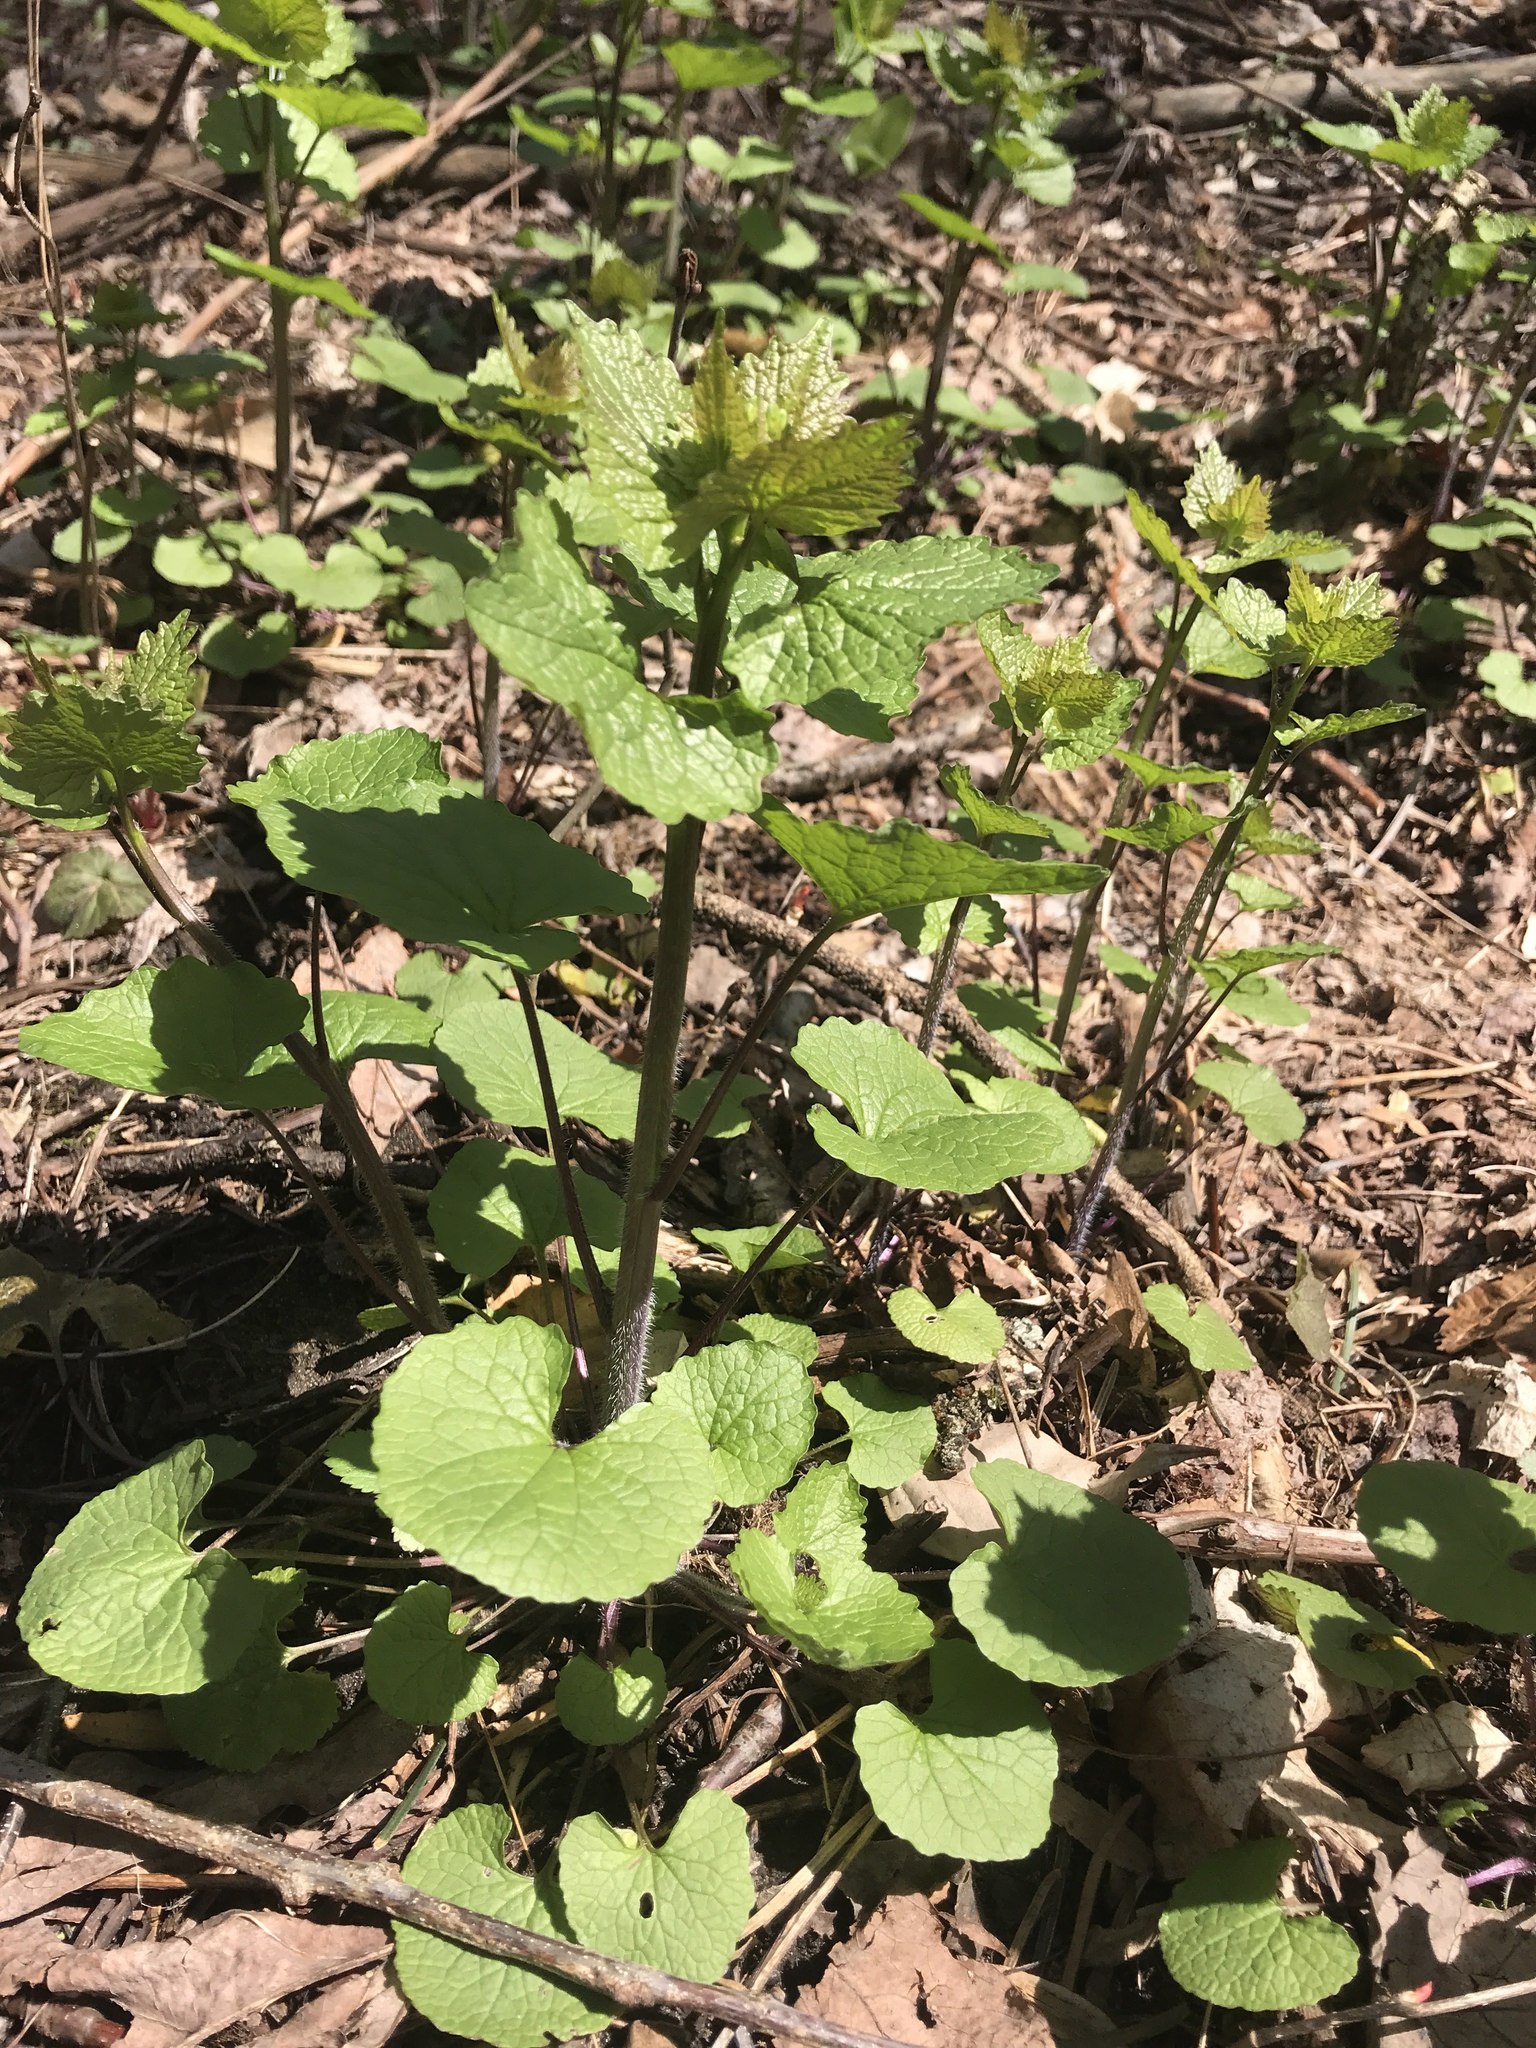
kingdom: Plantae
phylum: Tracheophyta
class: Magnoliopsida
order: Brassicales
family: Brassicaceae
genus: Alliaria
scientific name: Alliaria petiolata
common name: Garlic mustard
